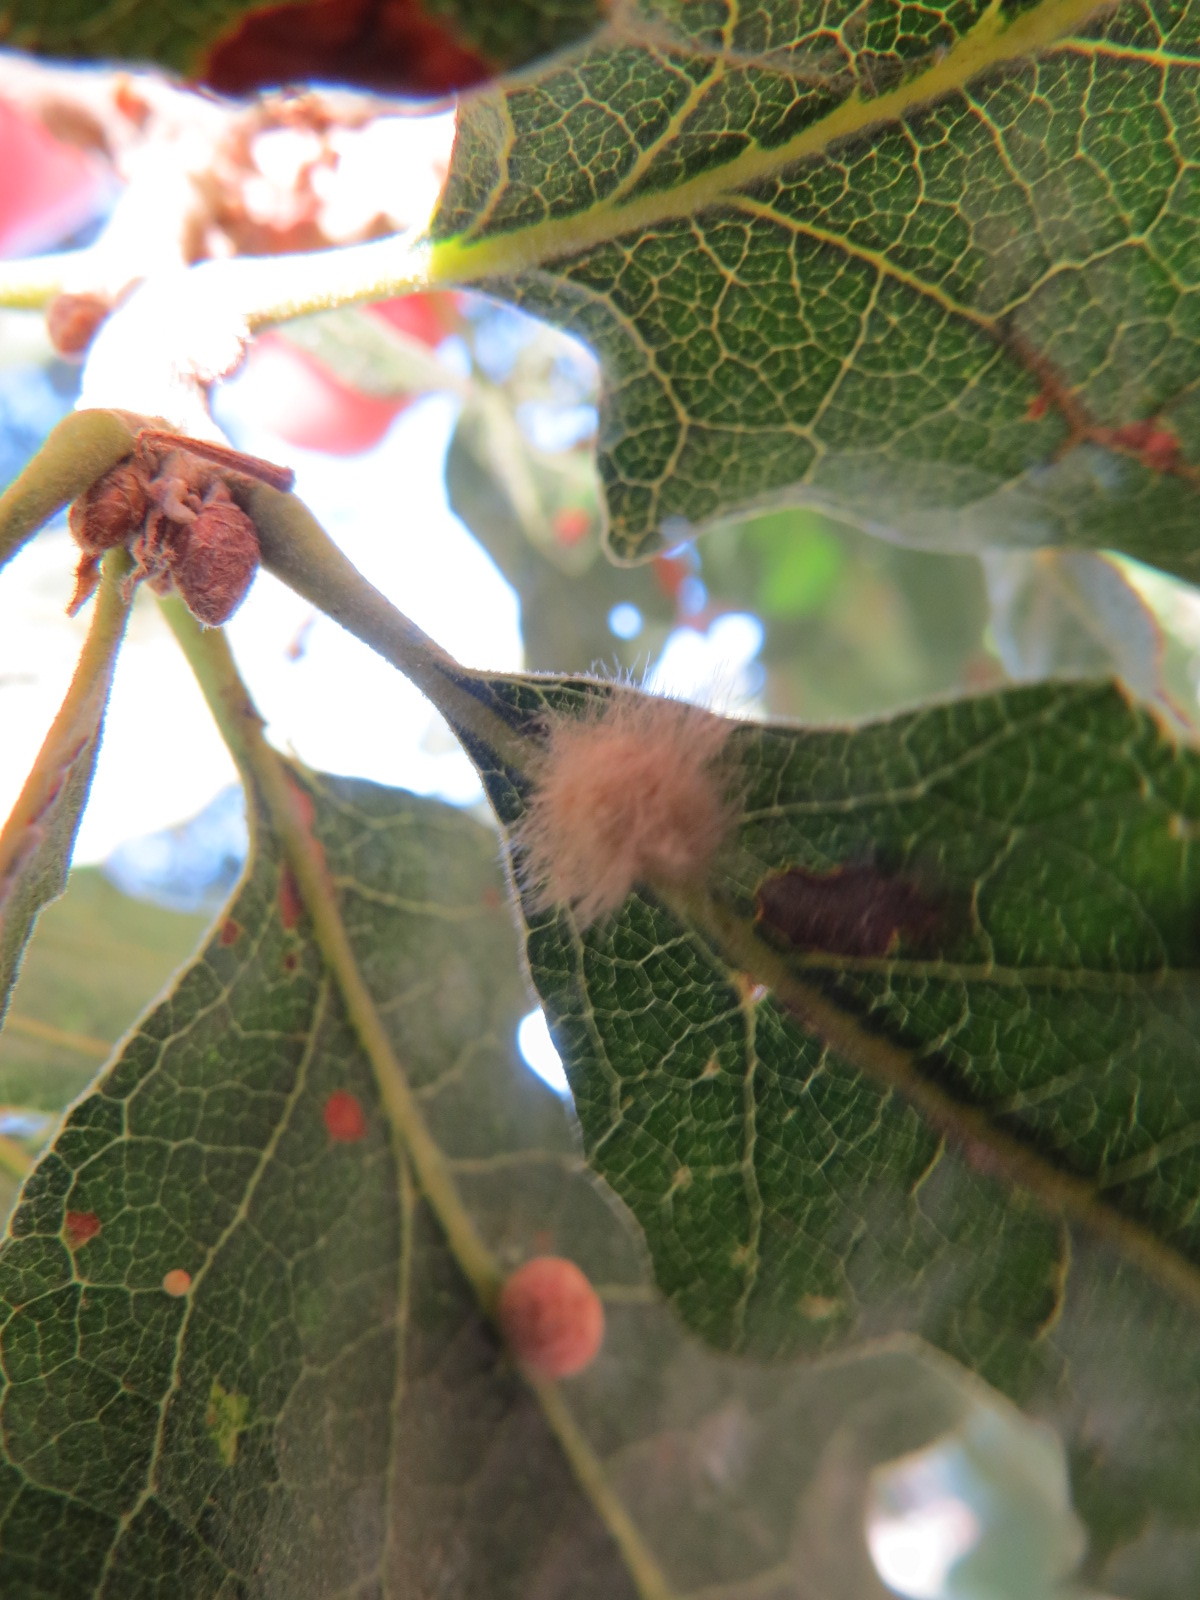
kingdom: Animalia
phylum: Arthropoda
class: Insecta
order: Hymenoptera
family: Cynipidae
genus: Andricus
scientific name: Andricus Druon fullawayi
